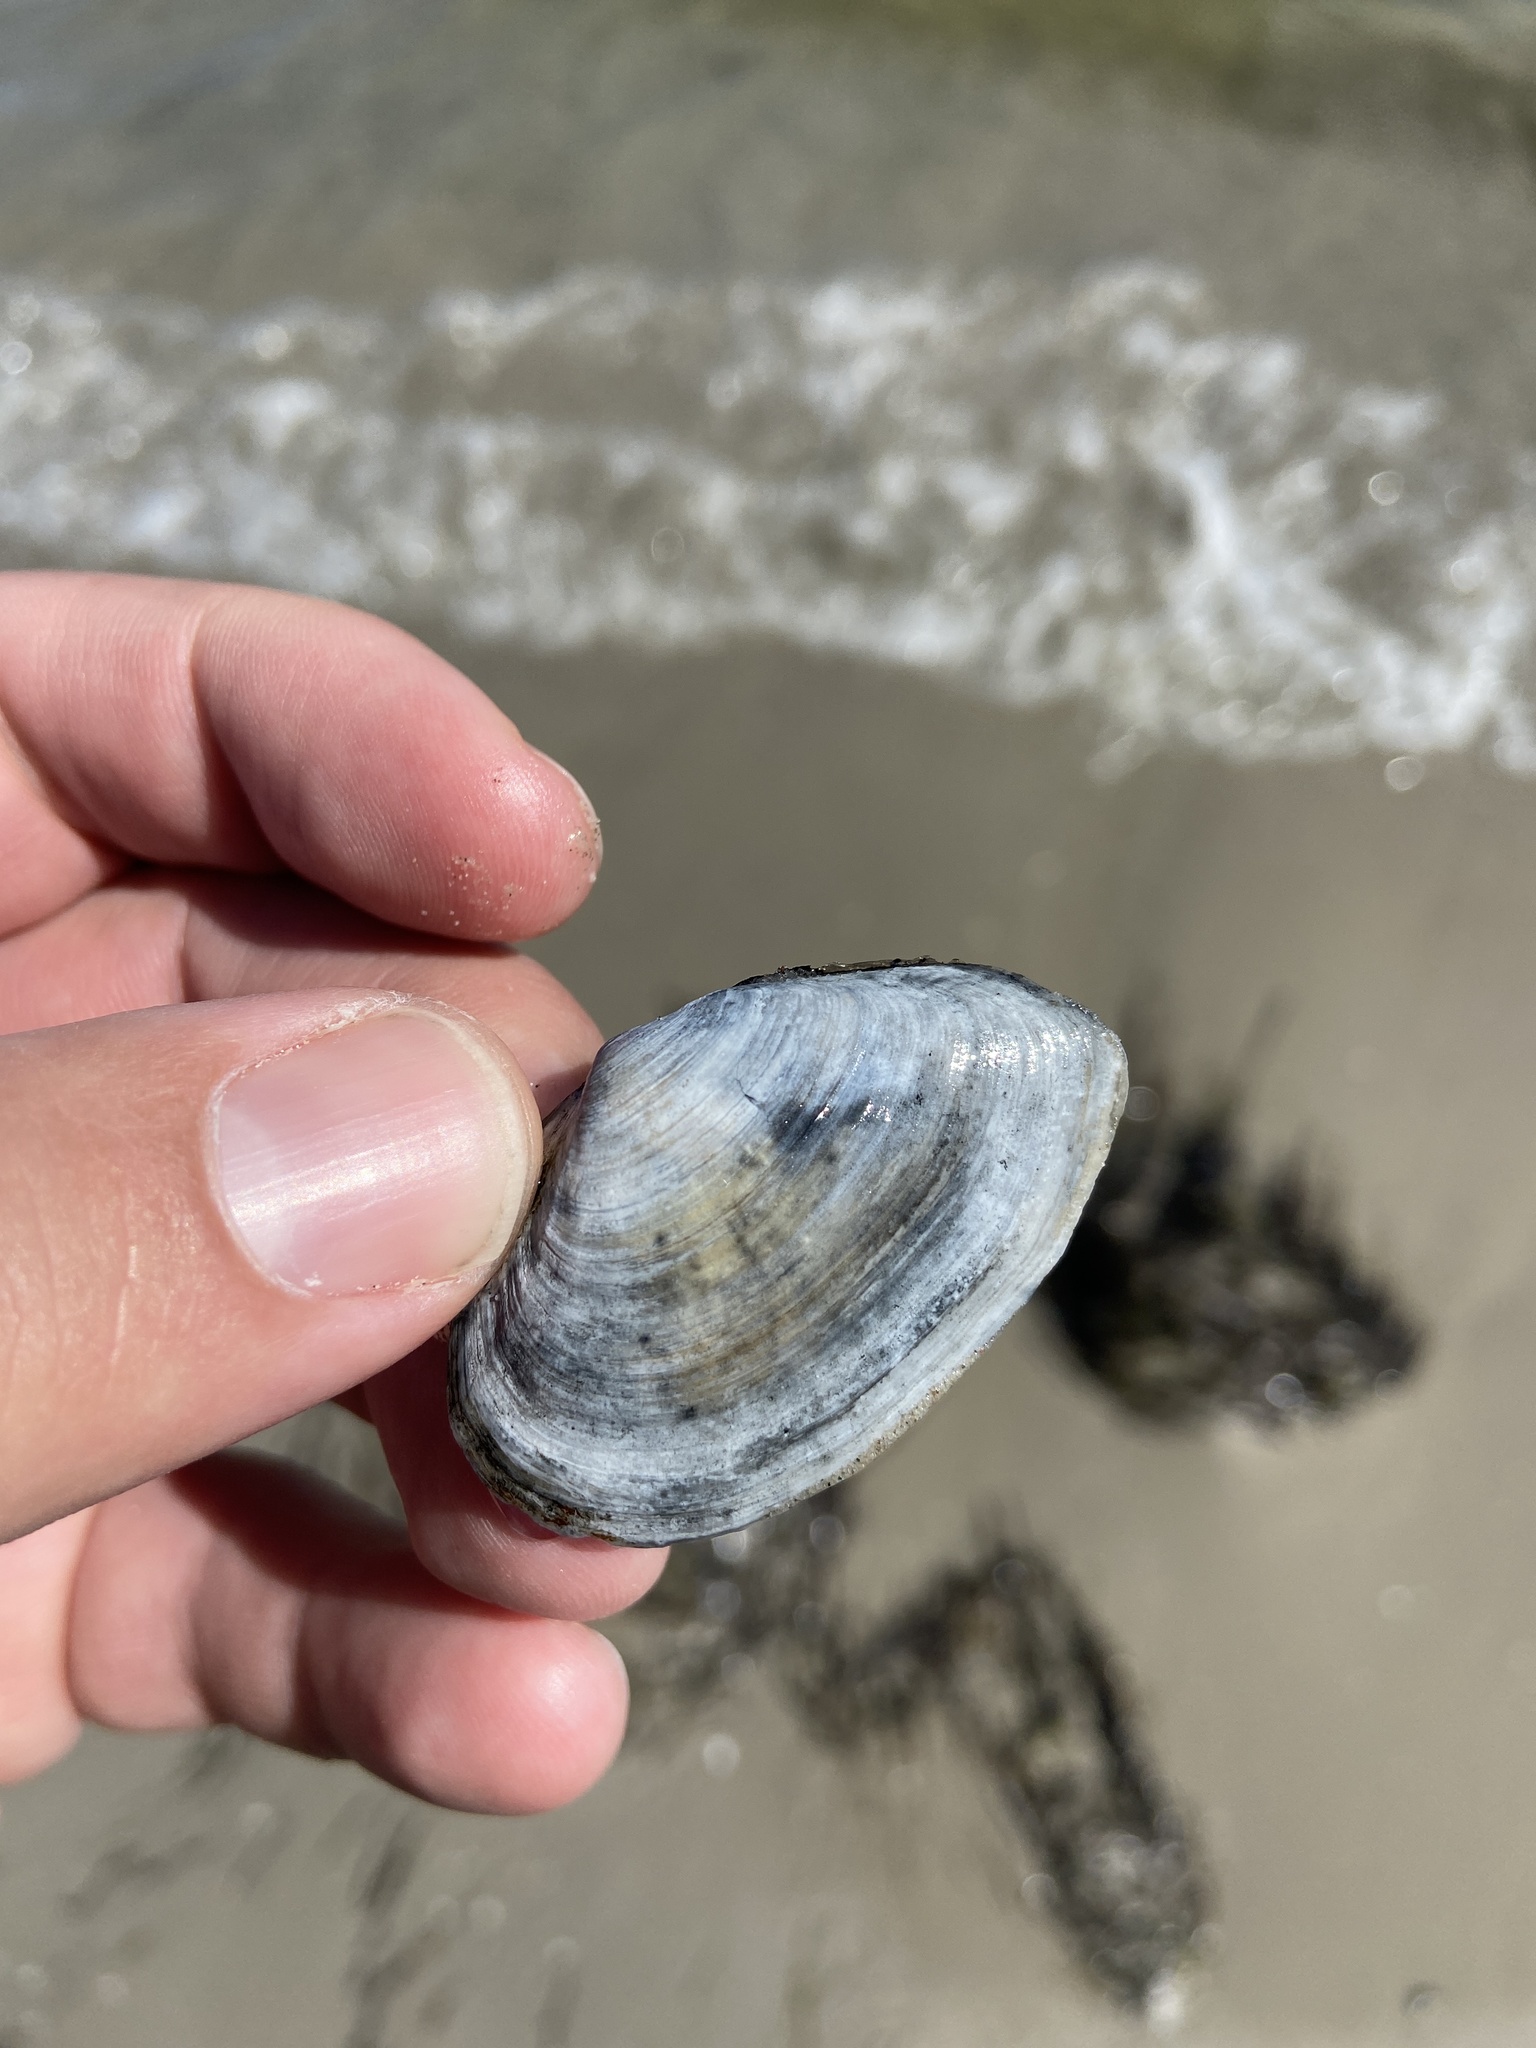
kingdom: Animalia
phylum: Mollusca
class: Bivalvia
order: Myida
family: Myidae
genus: Mya
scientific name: Mya arenaria
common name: Soft-shelled clam
